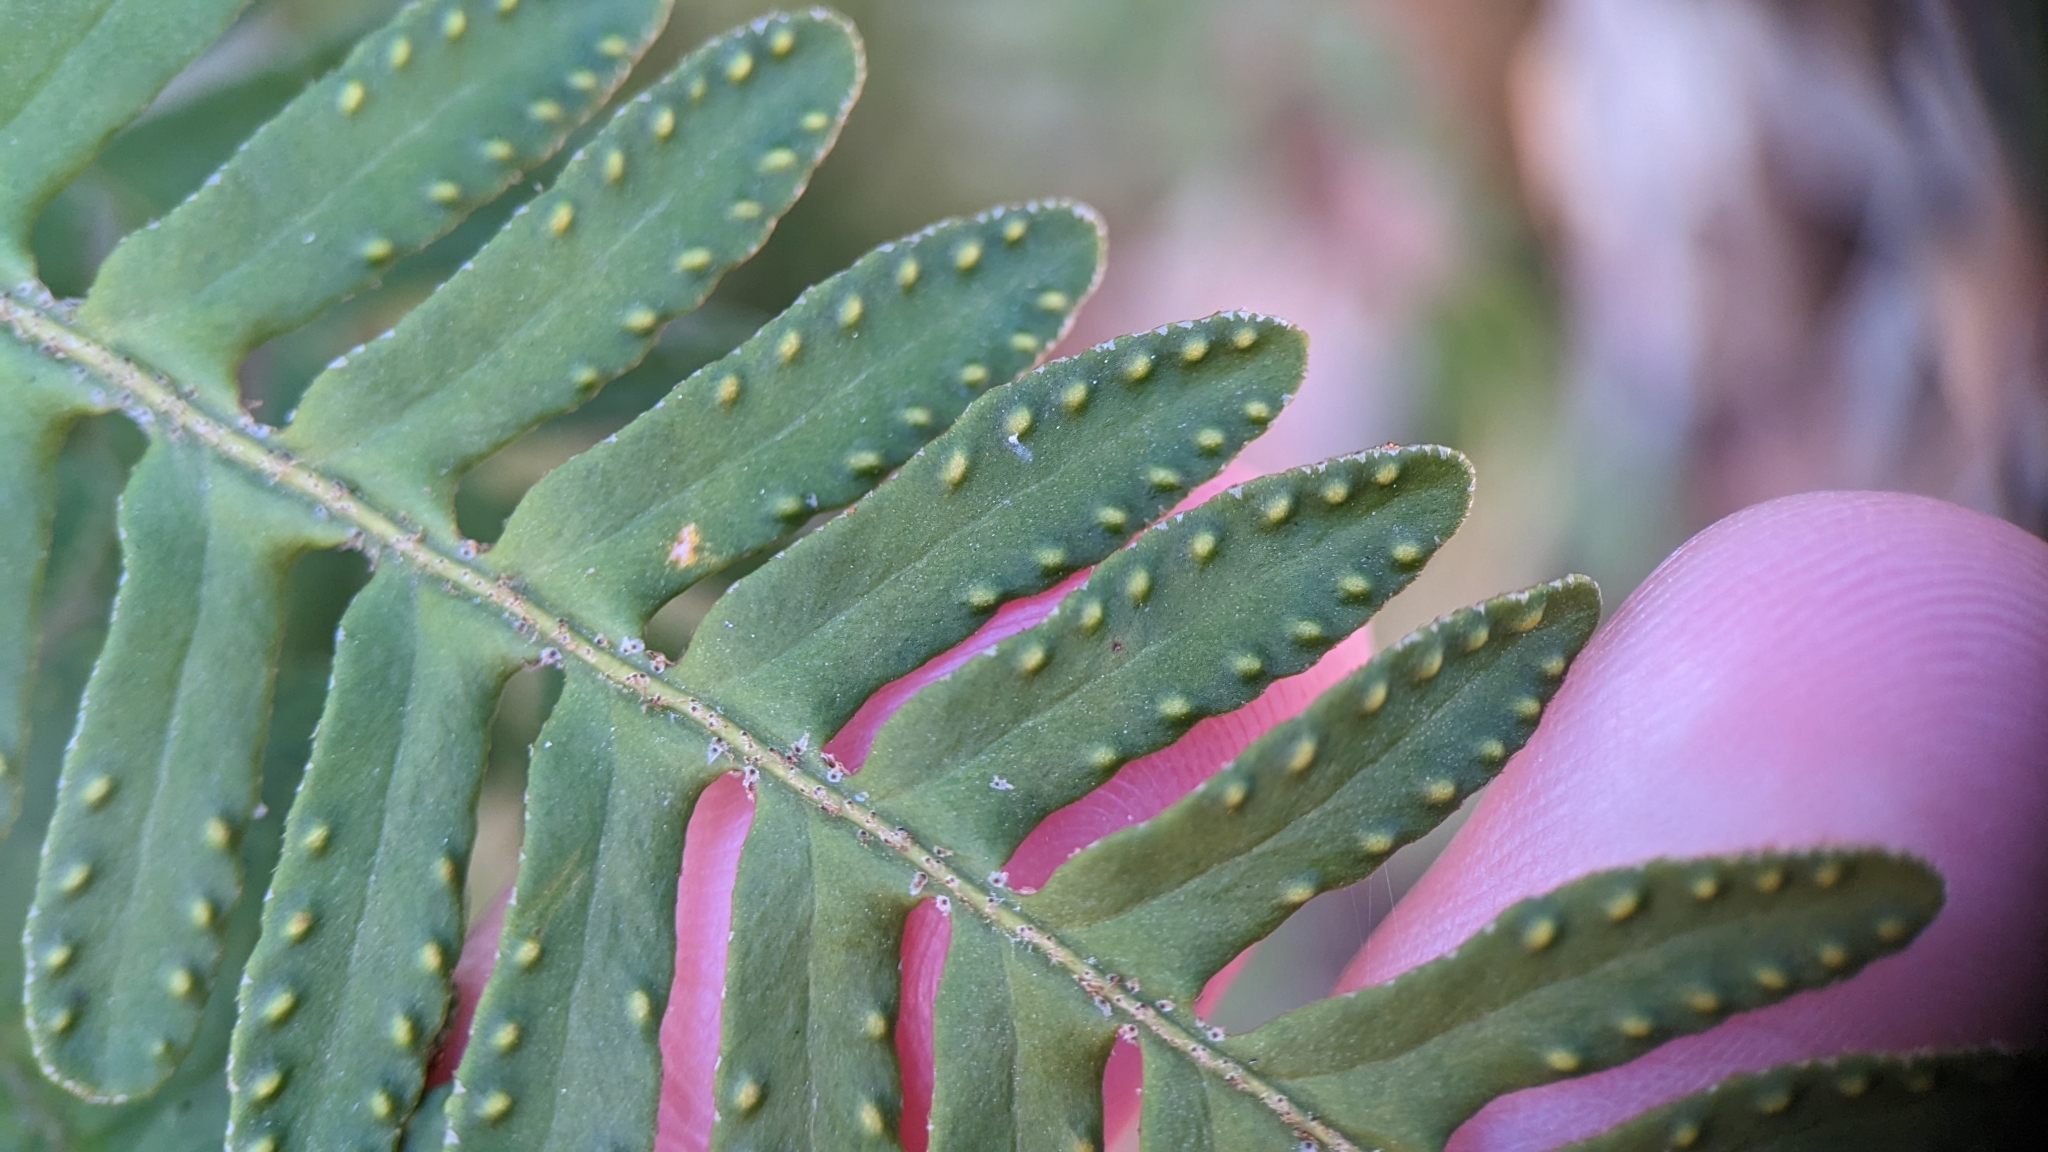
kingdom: Plantae
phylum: Tracheophyta
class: Polypodiopsida
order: Polypodiales
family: Polypodiaceae
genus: Pleopeltis
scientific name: Pleopeltis michauxiana
